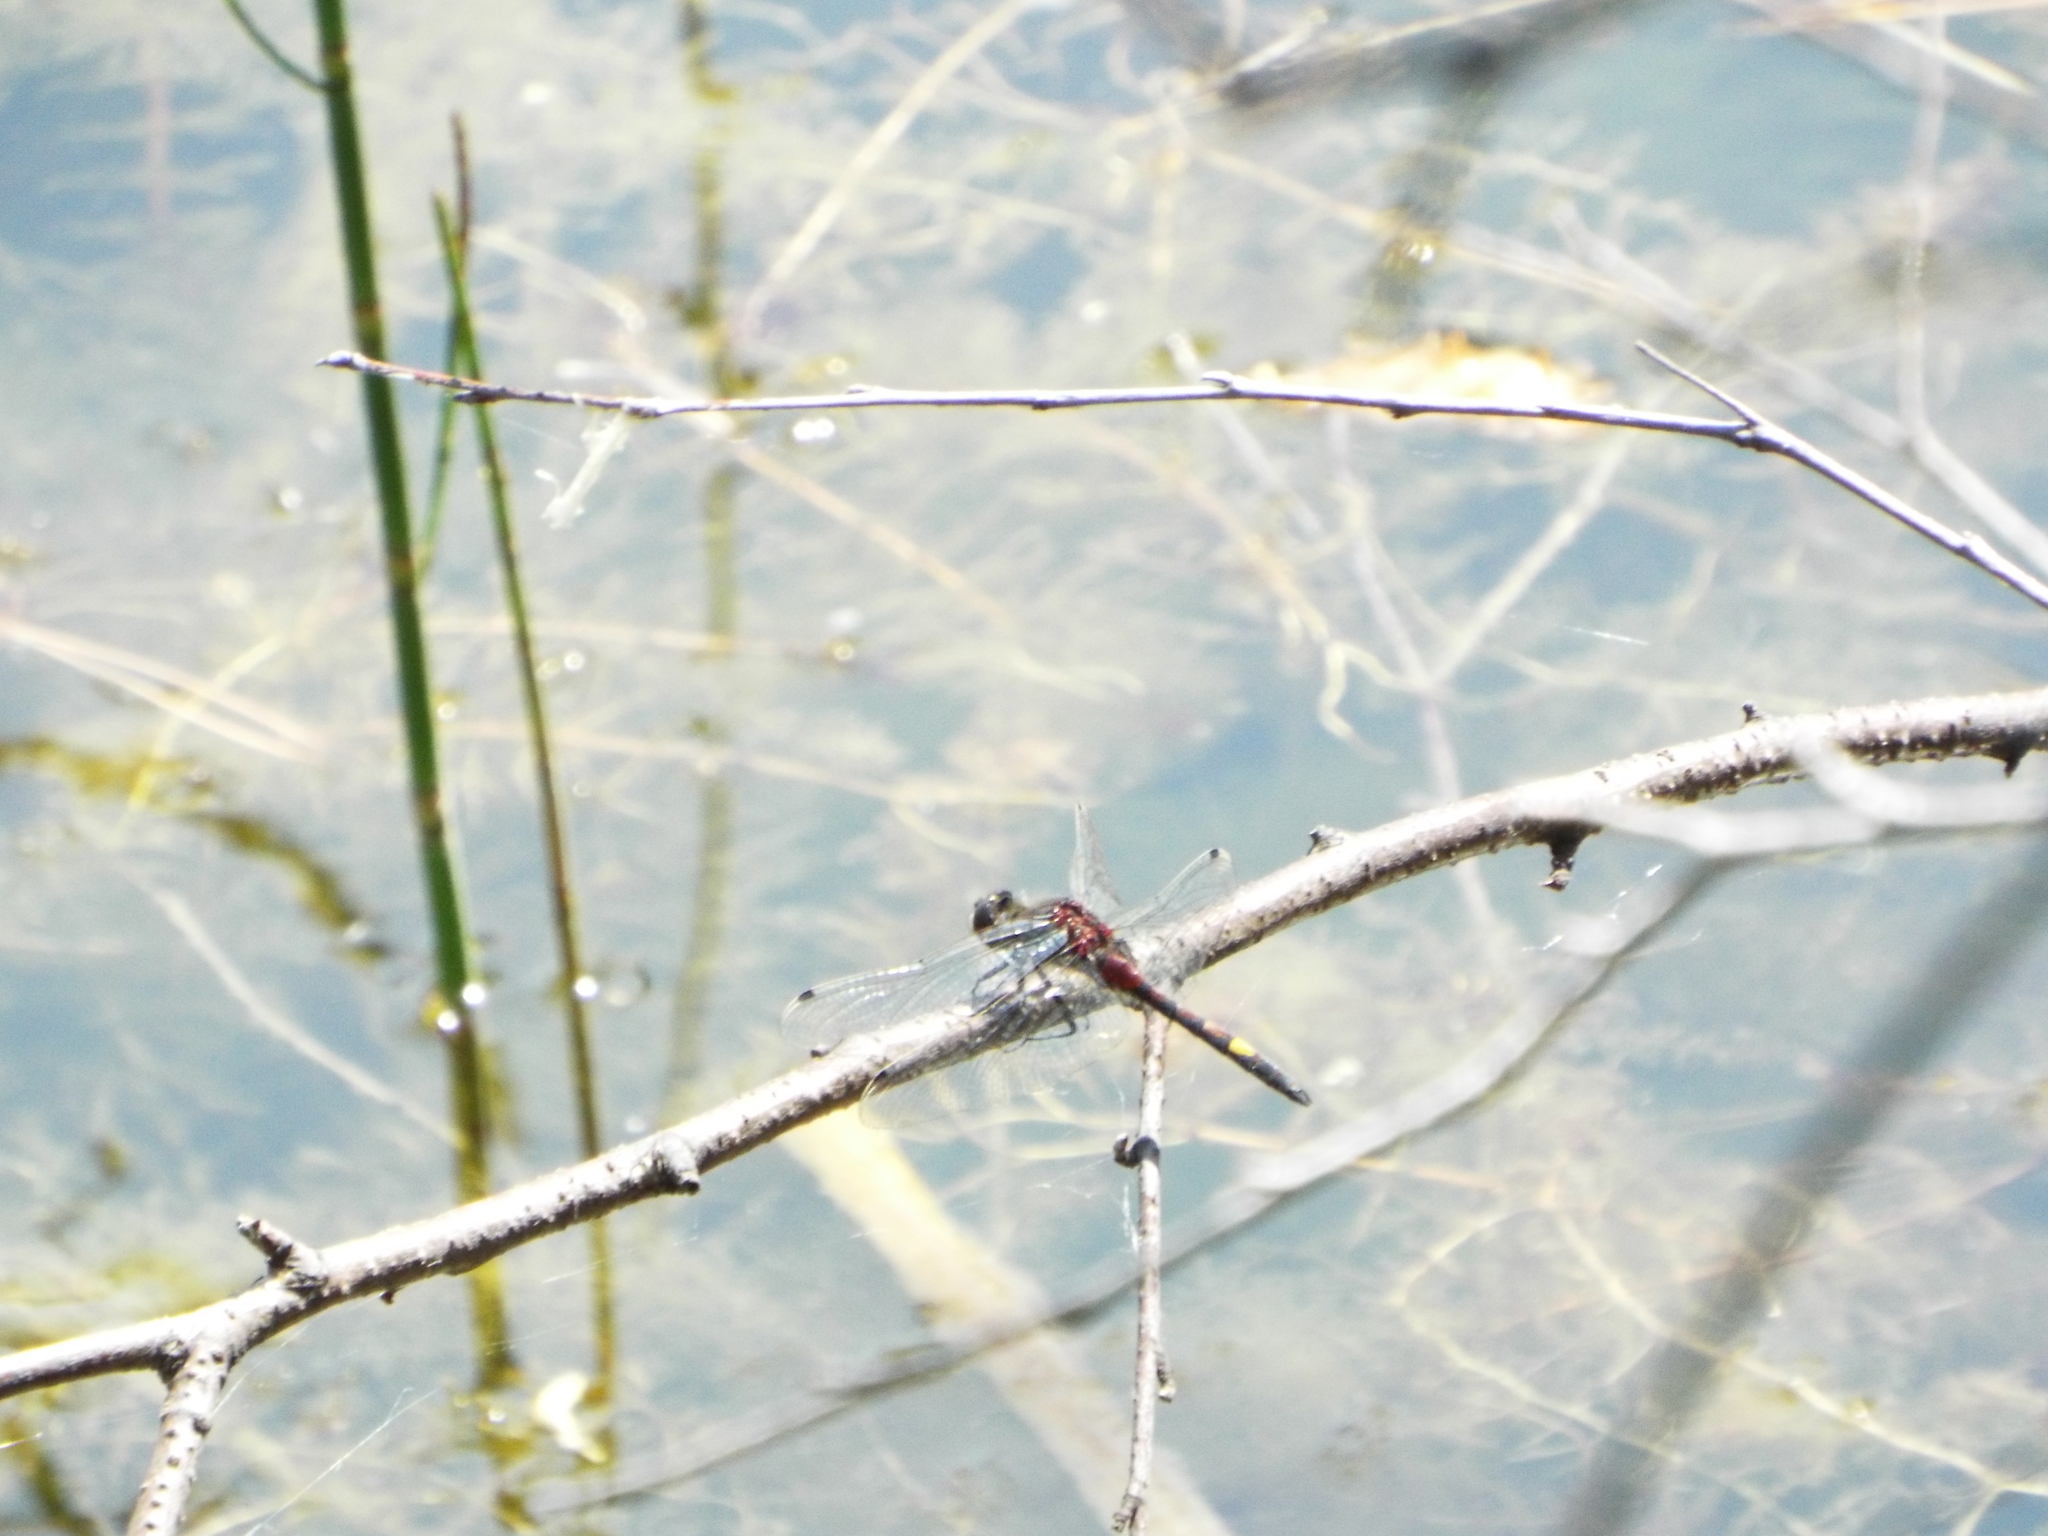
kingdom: Animalia
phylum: Arthropoda
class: Insecta
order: Odonata
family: Libellulidae
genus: Leucorrhinia
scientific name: Leucorrhinia pectoralis
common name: Yellow-spotted whiteface
